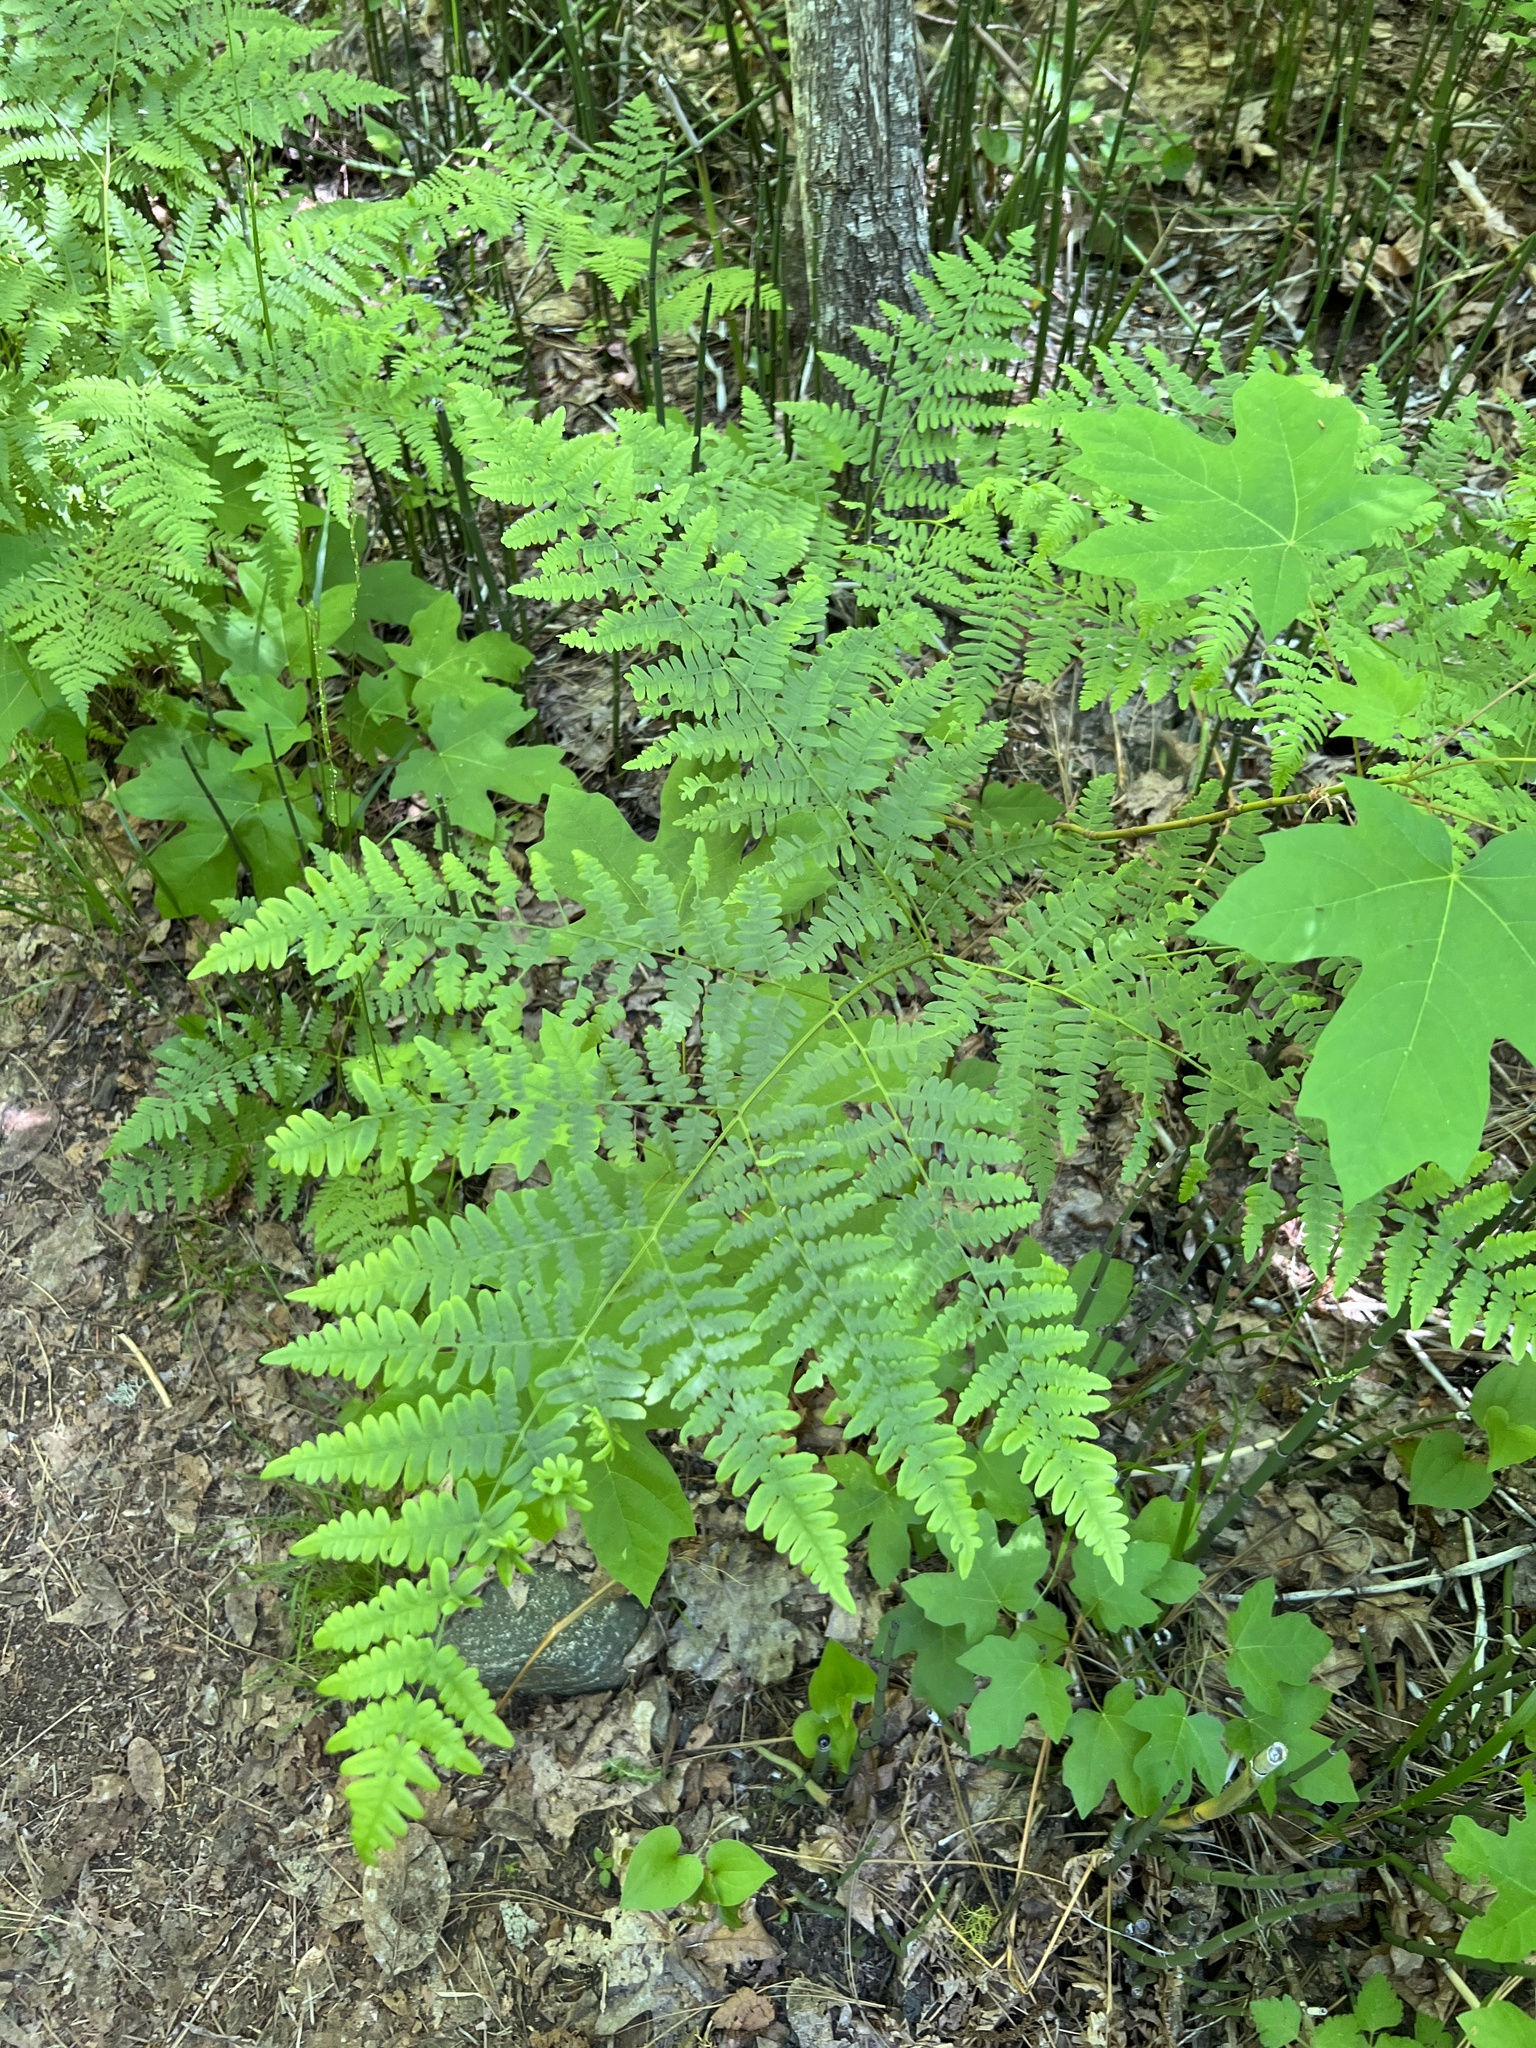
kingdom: Plantae
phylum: Tracheophyta
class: Polypodiopsida
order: Polypodiales
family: Dennstaedtiaceae
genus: Pteridium
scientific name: Pteridium aquilinum
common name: Bracken
